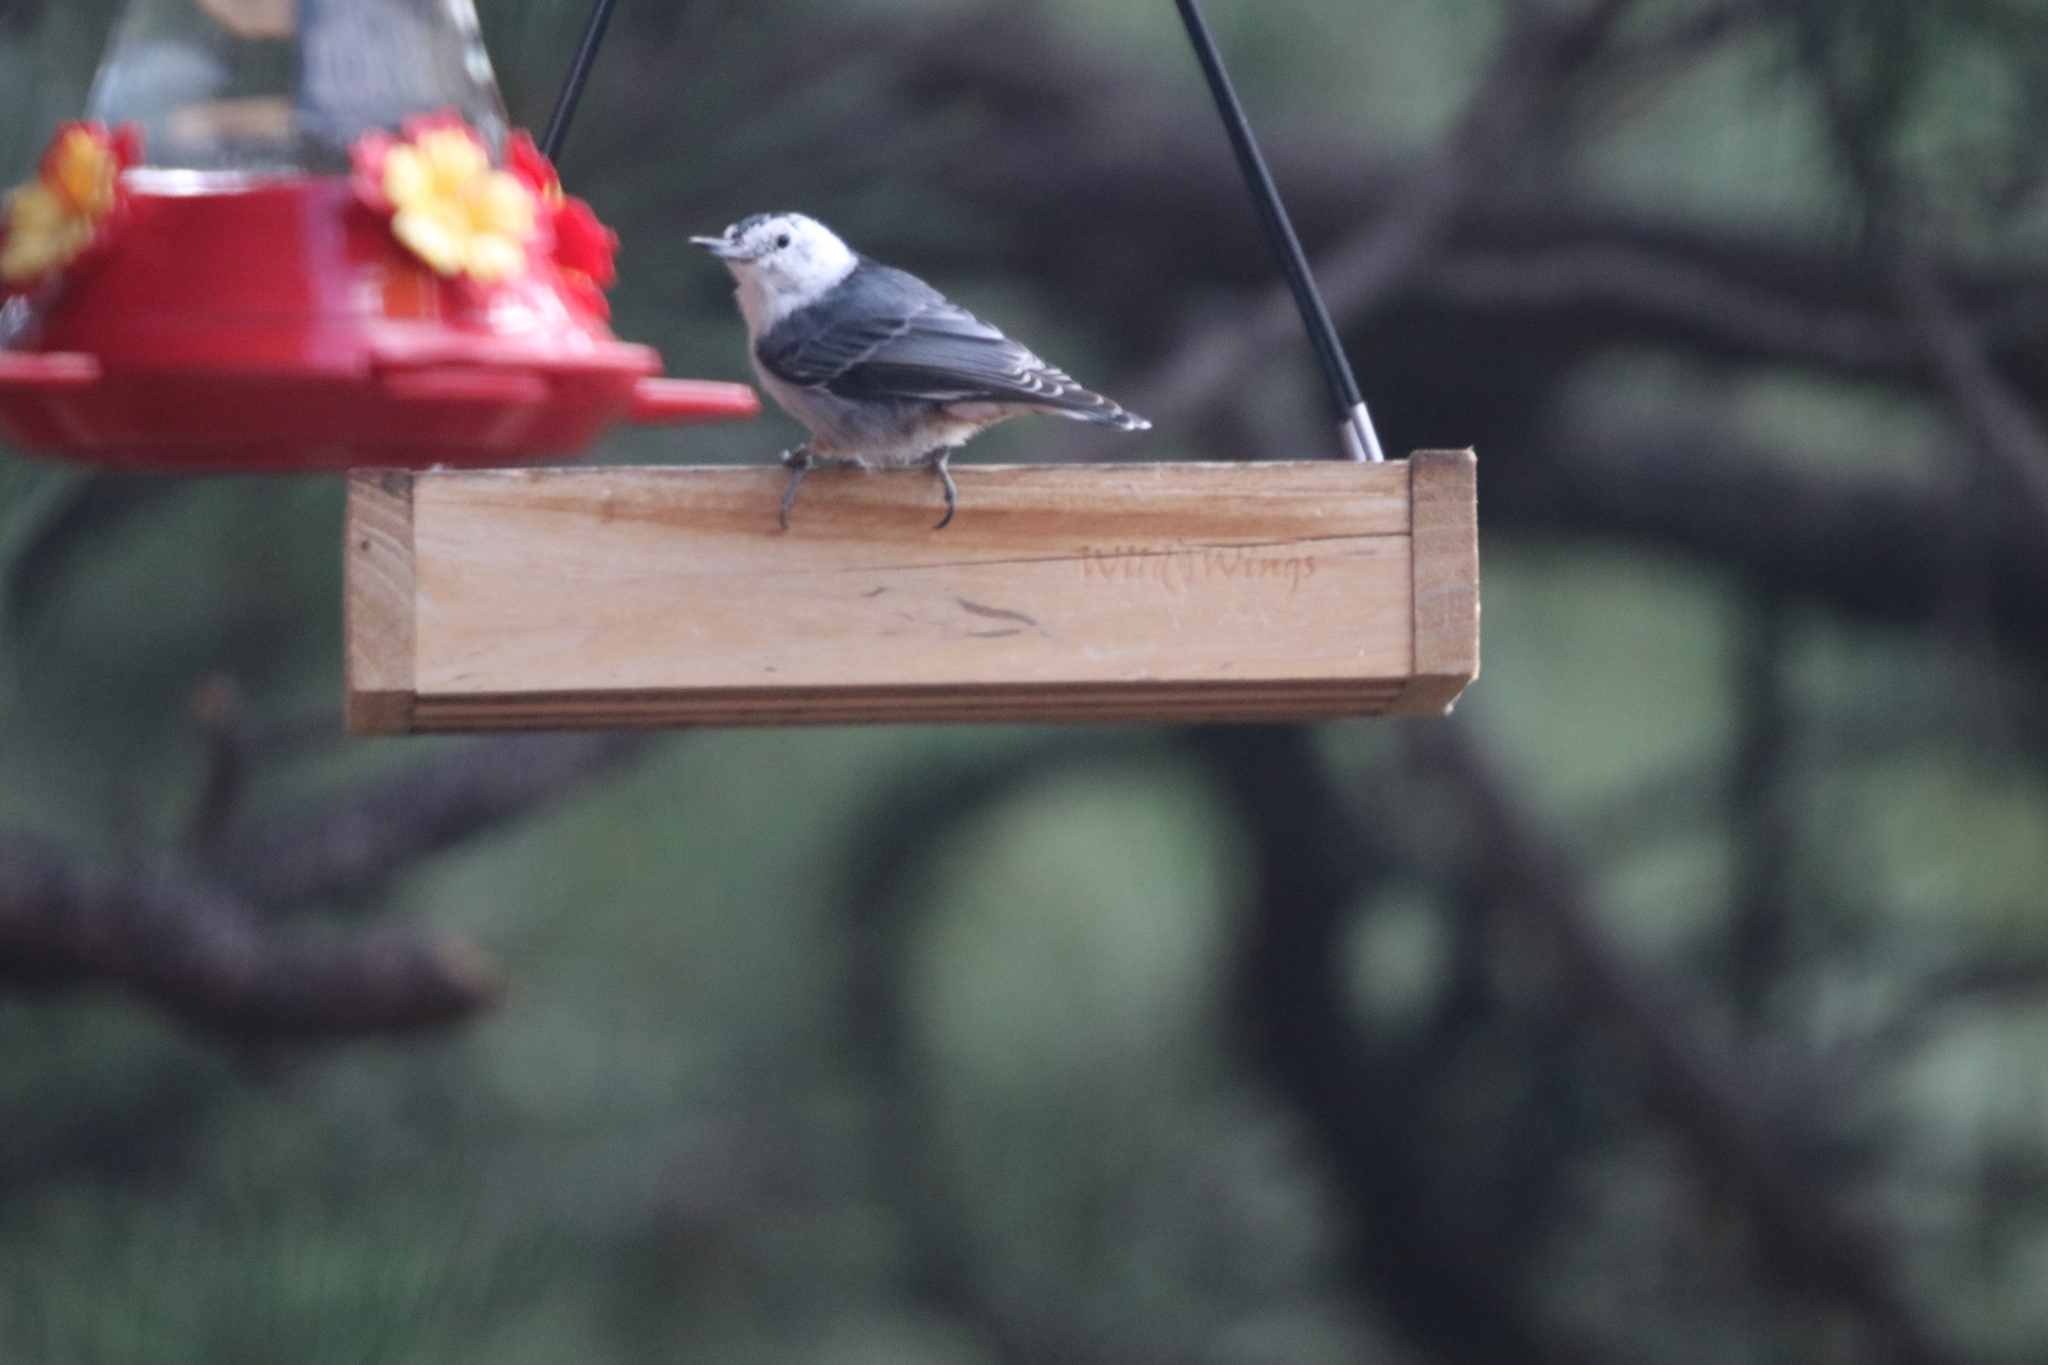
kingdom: Animalia
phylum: Chordata
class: Aves
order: Passeriformes
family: Sittidae
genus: Sitta
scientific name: Sitta carolinensis
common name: White-breasted nuthatch
